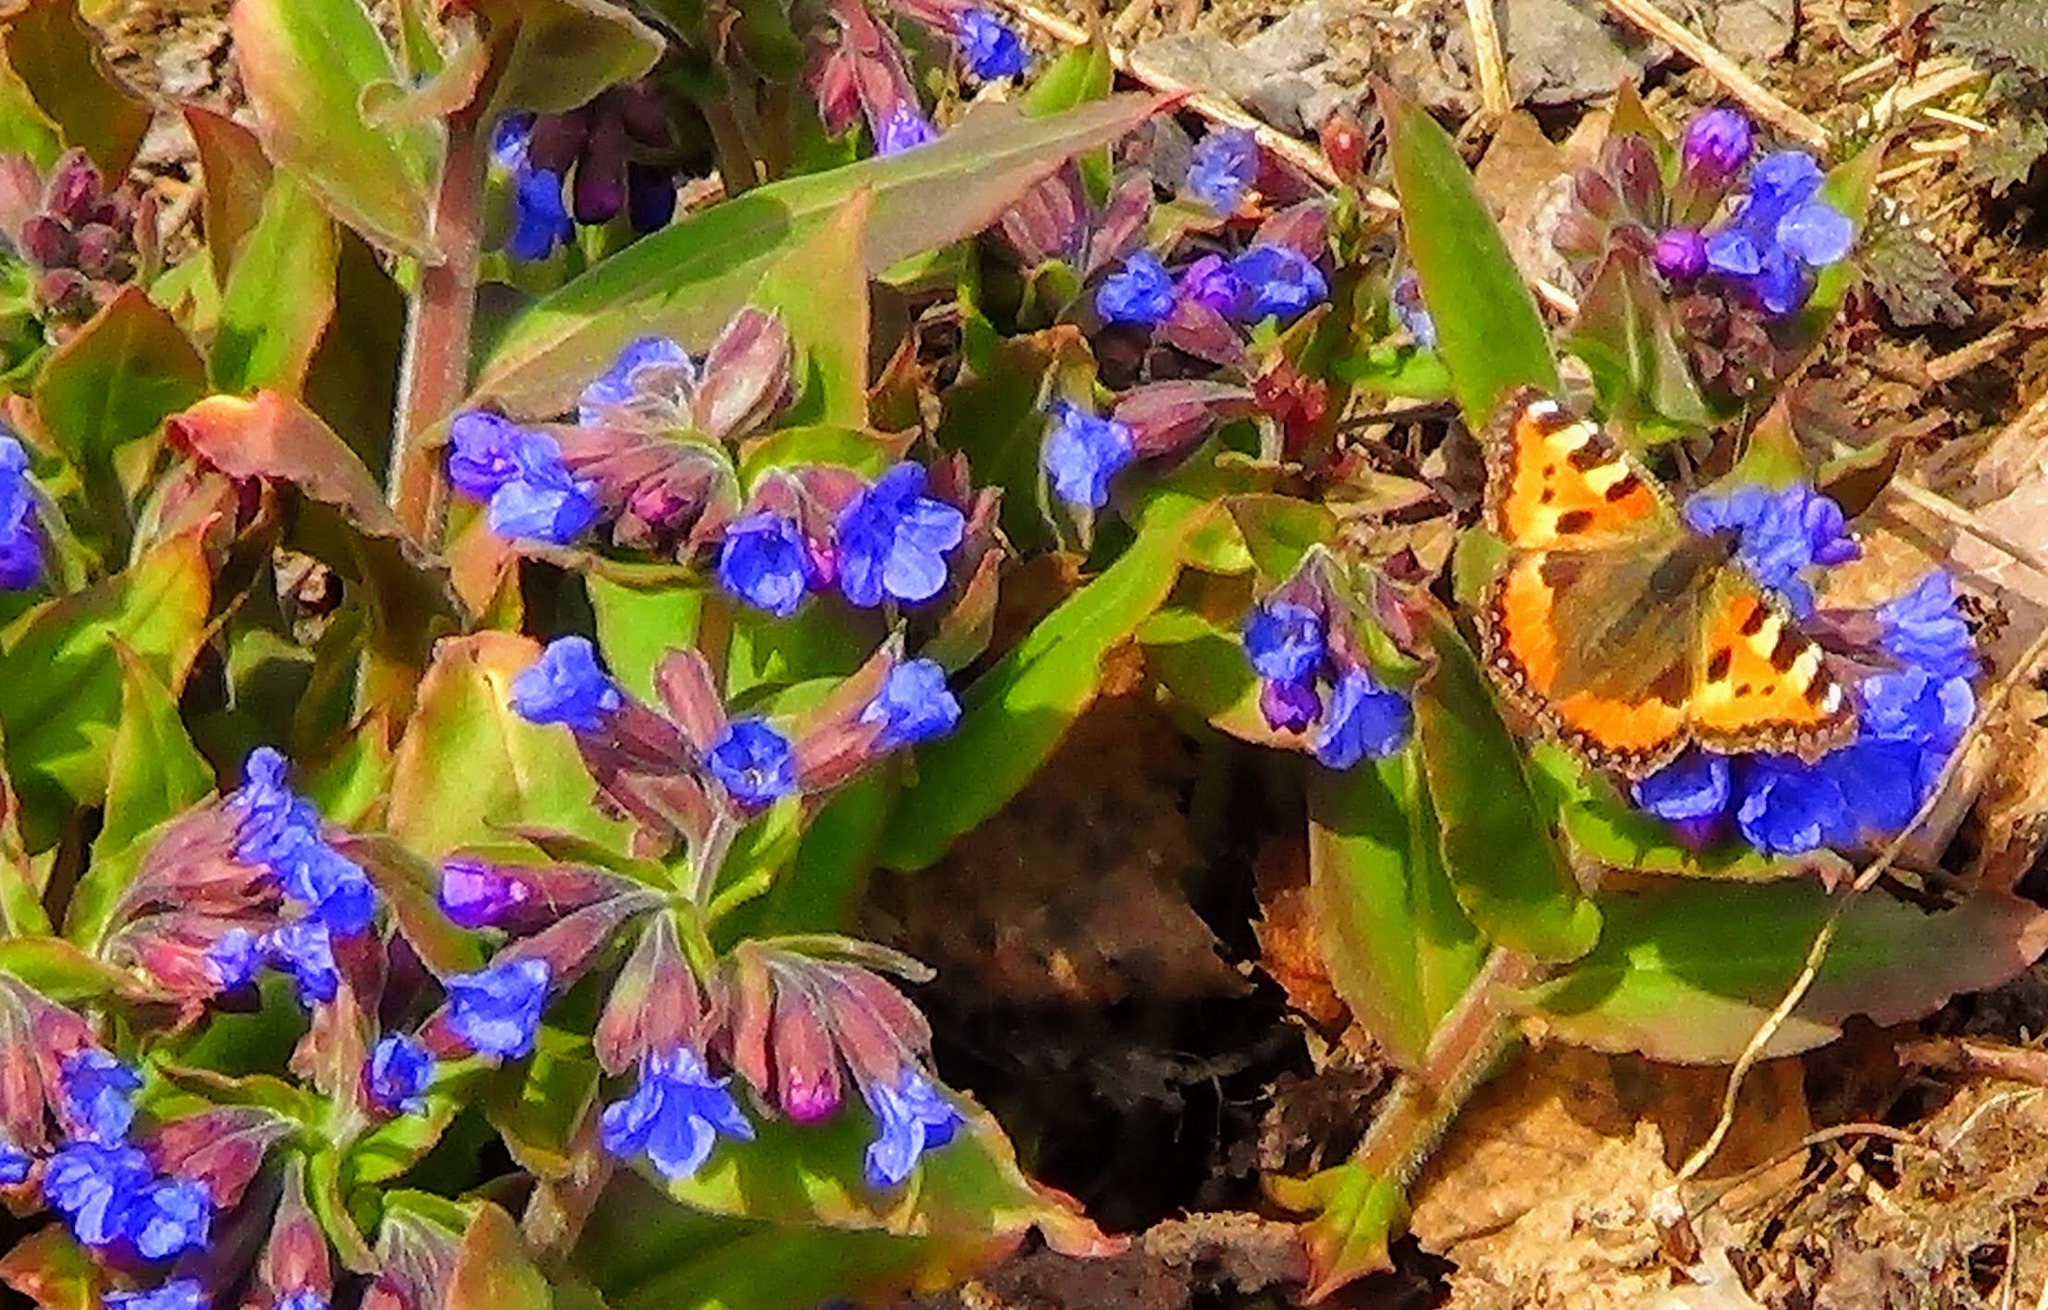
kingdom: Plantae
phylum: Tracheophyta
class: Magnoliopsida
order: Boraginales
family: Boraginaceae
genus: Pulmonaria
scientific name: Pulmonaria mollis
